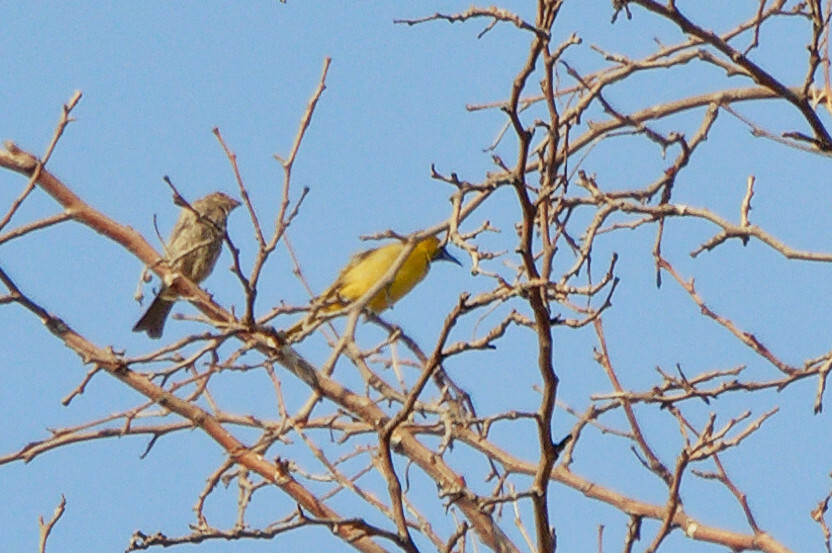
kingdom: Animalia
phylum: Chordata
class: Aves
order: Passeriformes
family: Icteridae
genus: Icterus
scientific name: Icterus cucullatus
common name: Hooded oriole
